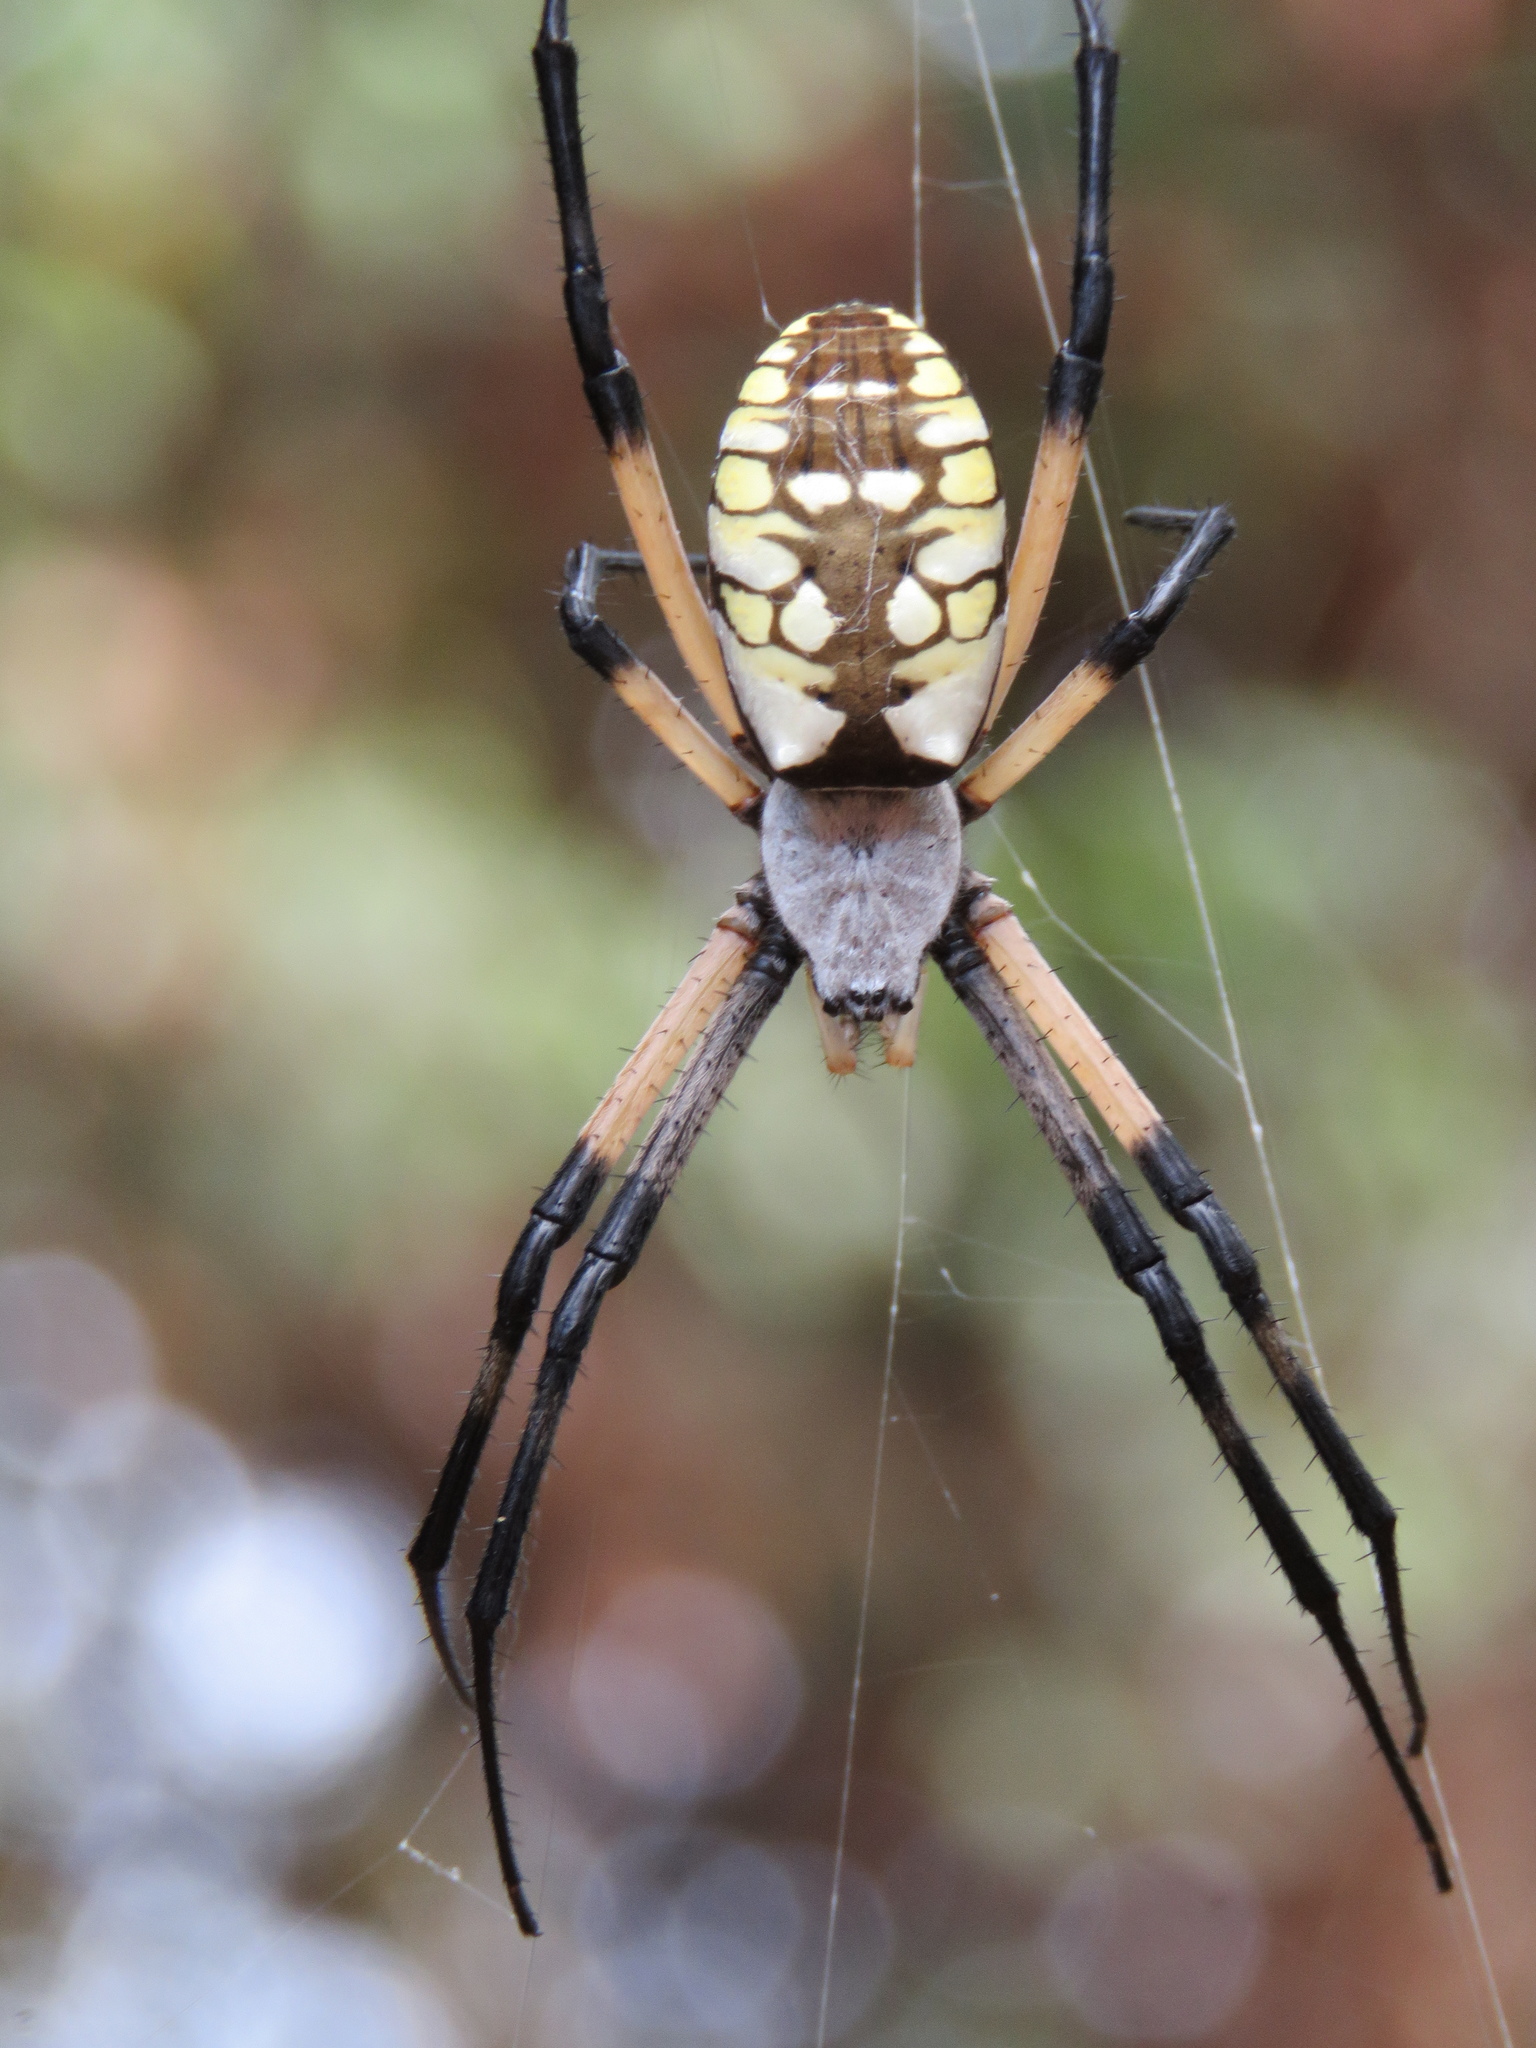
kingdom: Animalia
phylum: Arthropoda
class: Arachnida
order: Araneae
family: Araneidae
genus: Argiope
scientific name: Argiope aurantia
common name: Orb weavers
